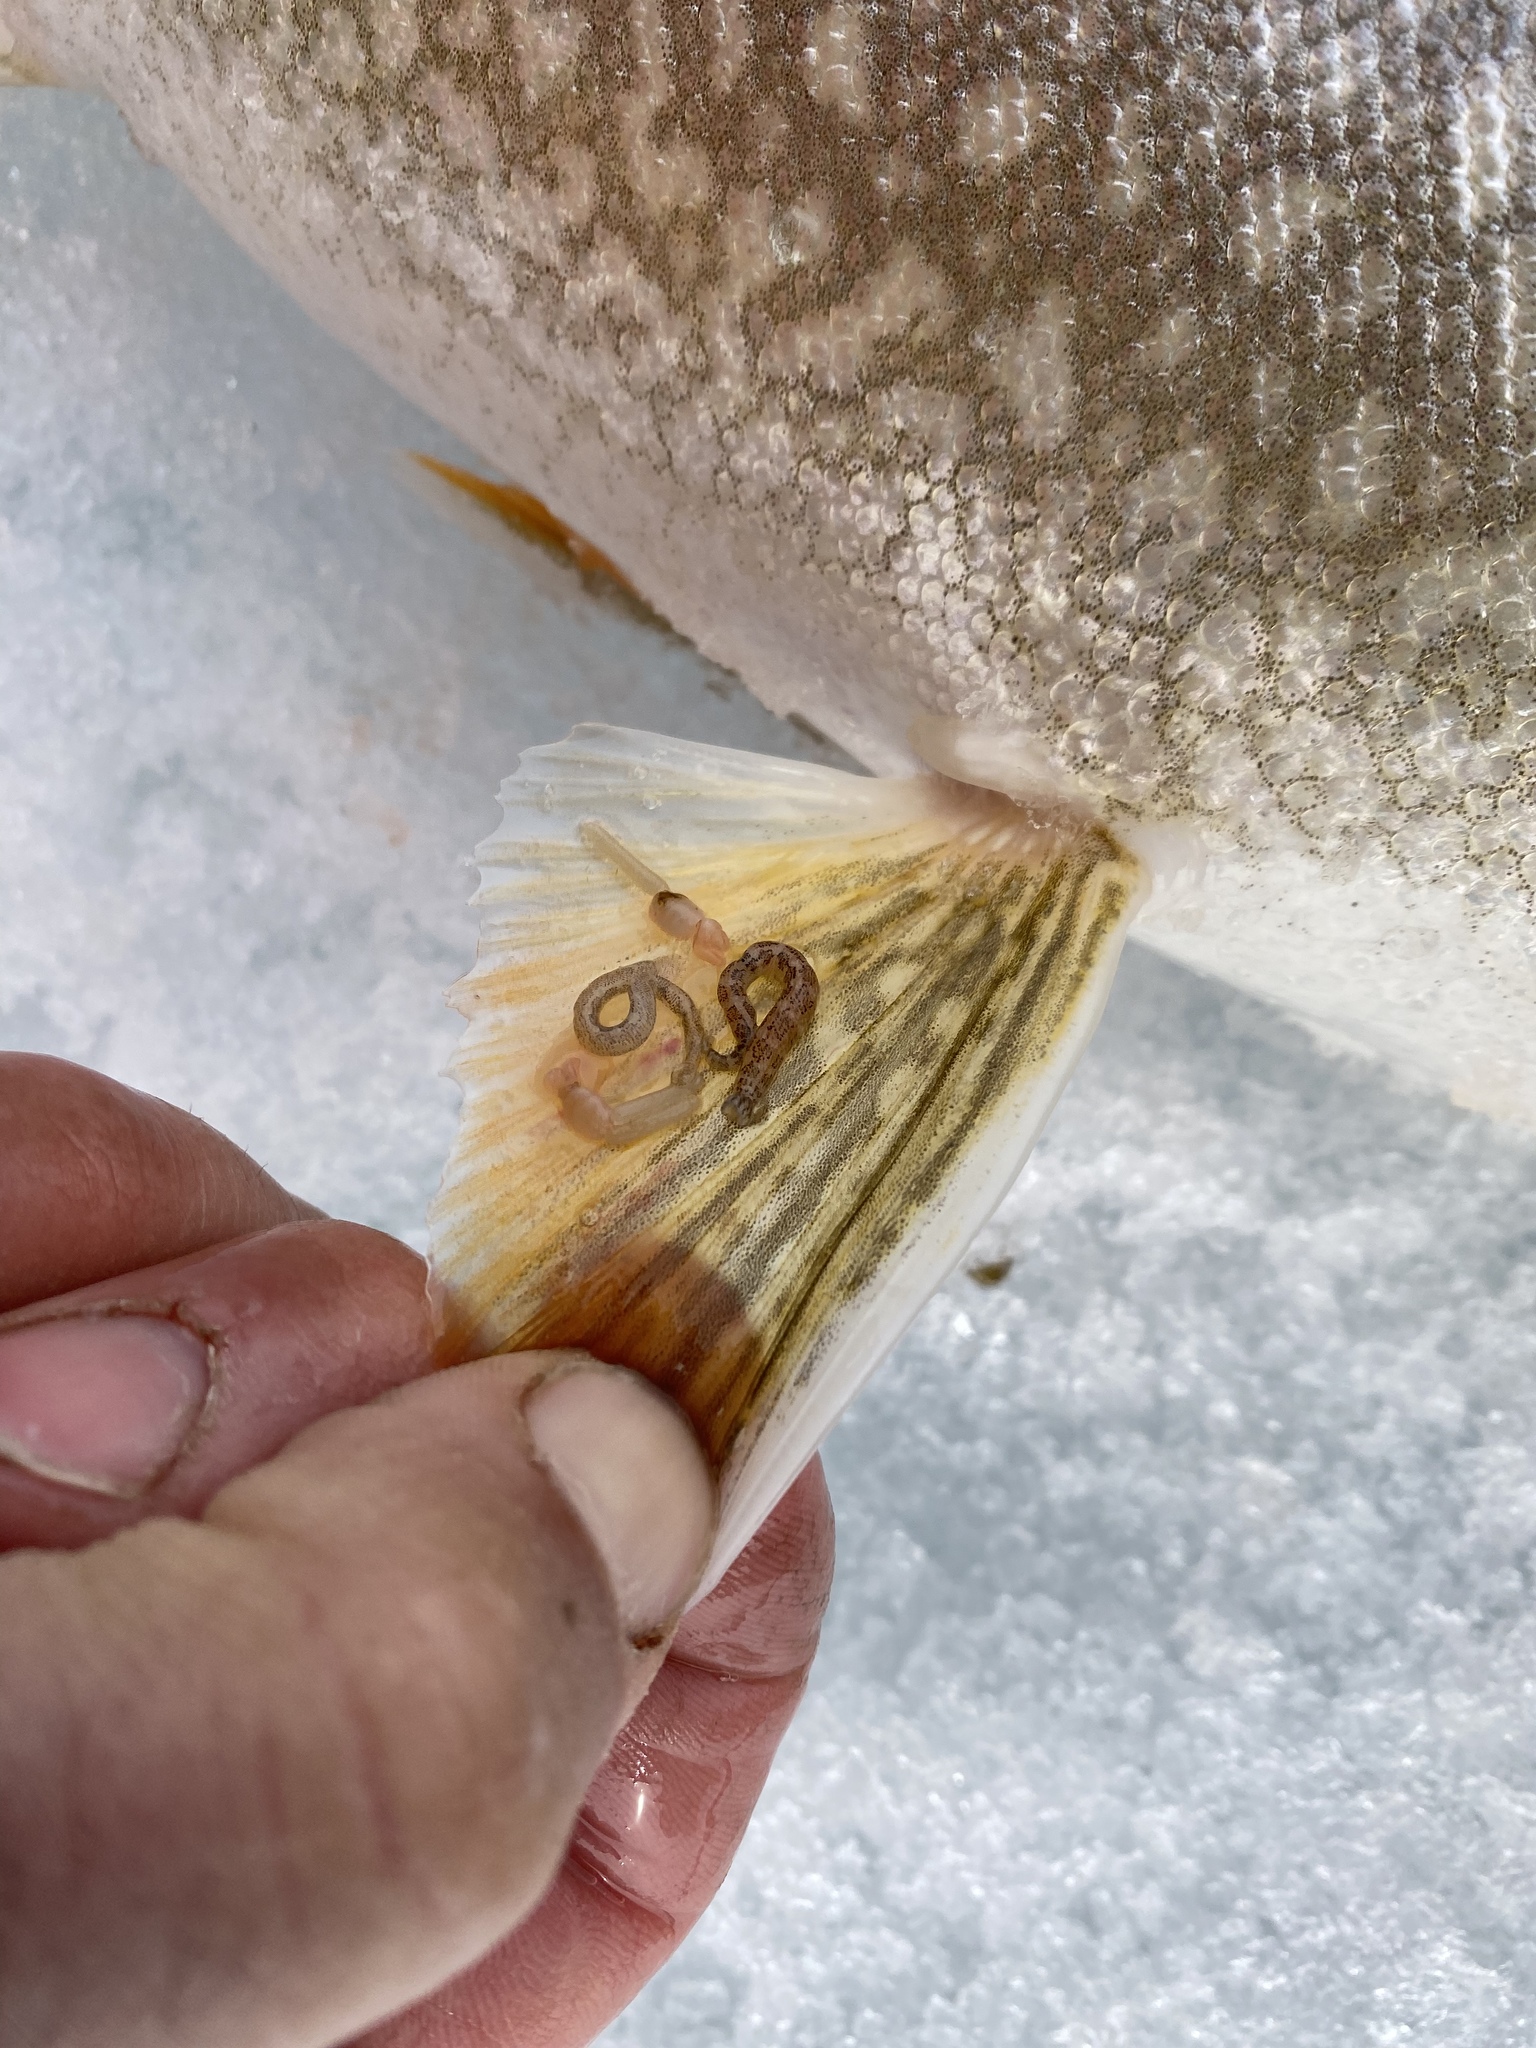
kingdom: Animalia
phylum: Annelida
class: Clitellata
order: Rhynchobdellida
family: Piscicolidae
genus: Piscicola
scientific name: Piscicola geometra
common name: Fish leech
